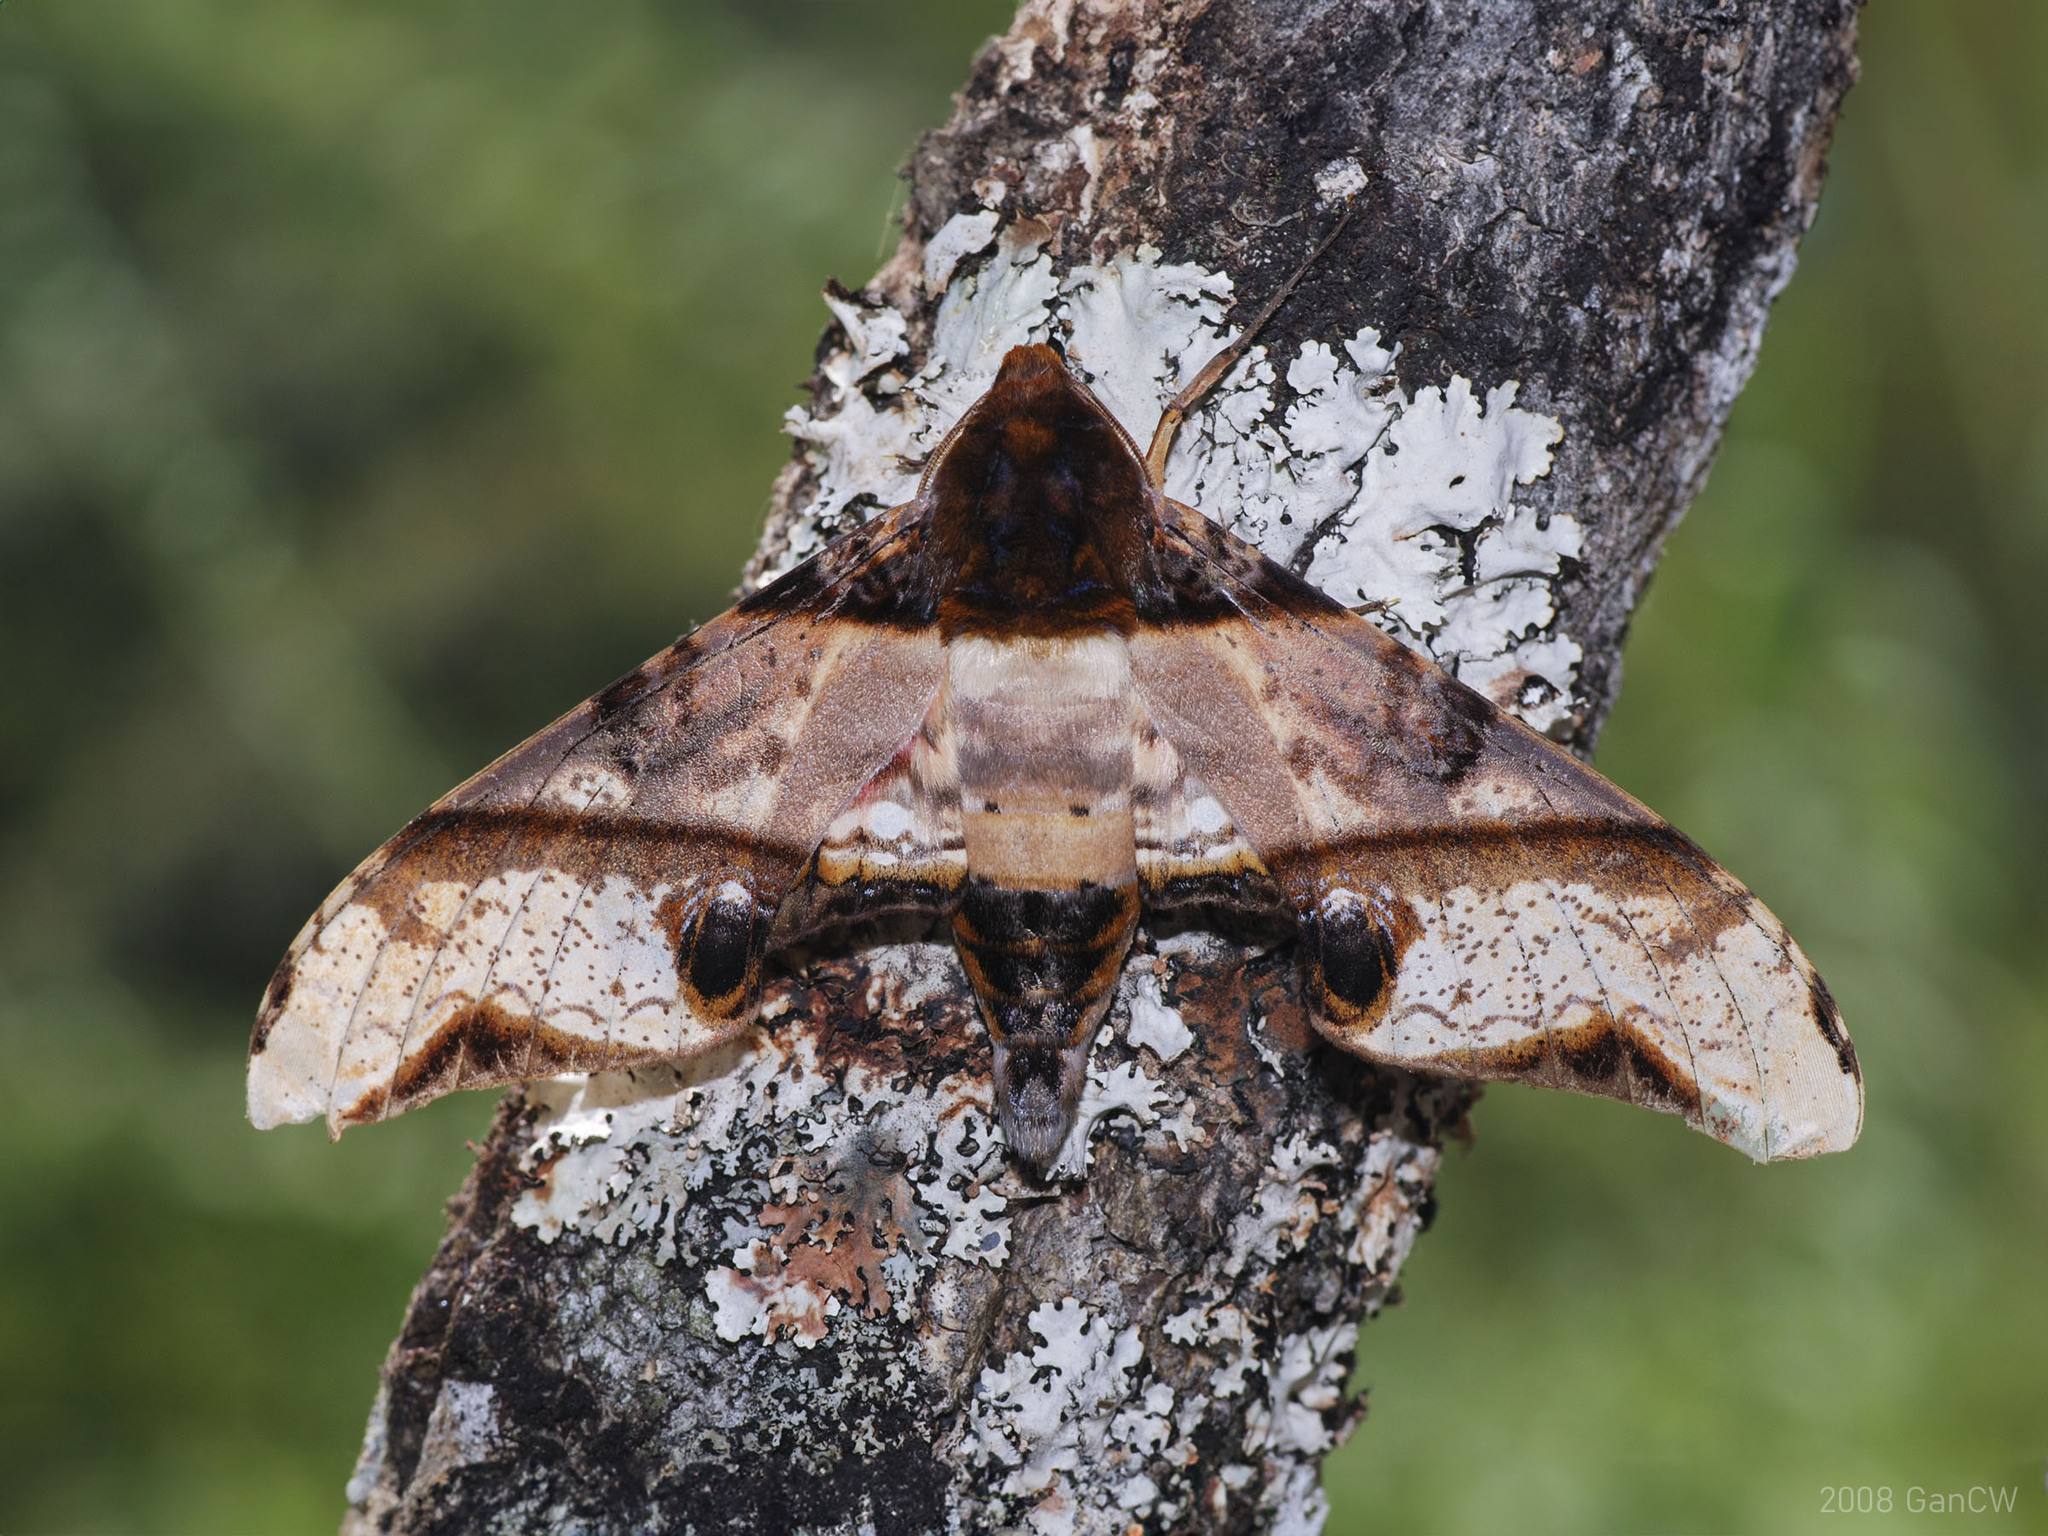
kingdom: Animalia
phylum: Arthropoda
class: Insecta
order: Lepidoptera
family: Sphingidae
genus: Amplypterus
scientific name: Amplypterus panopus
